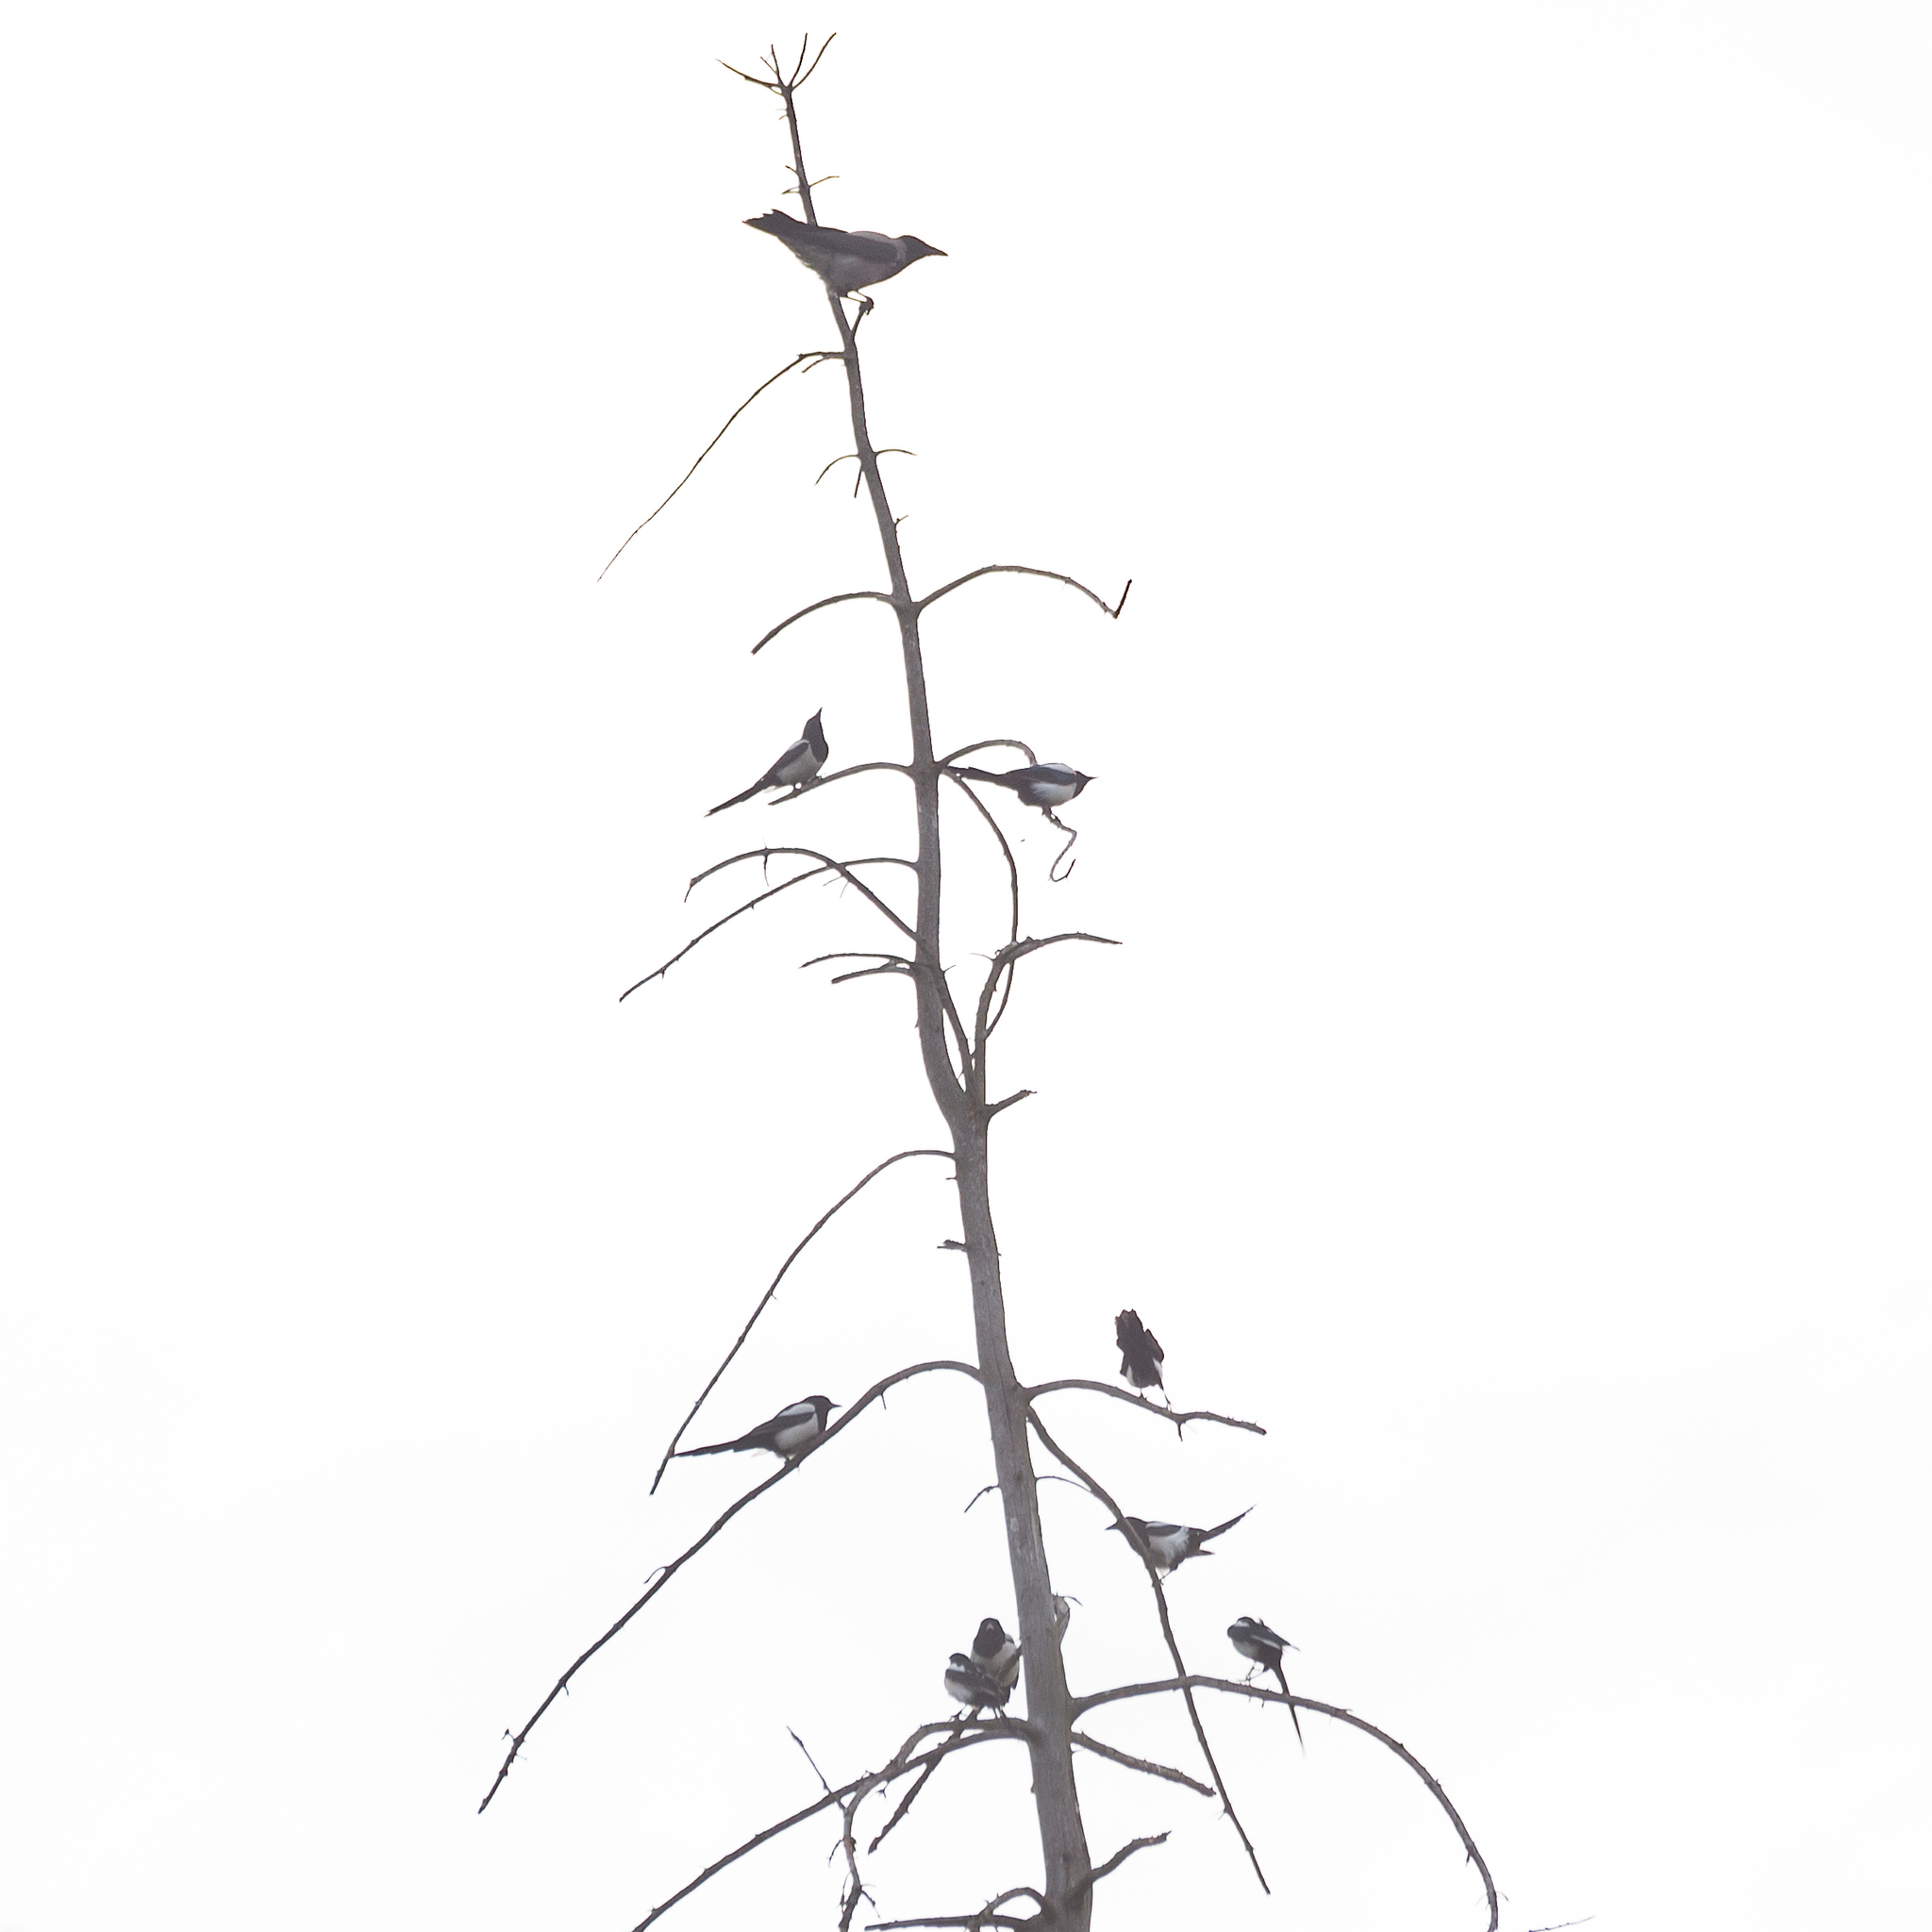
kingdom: Animalia
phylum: Chordata
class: Aves
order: Passeriformes
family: Corvidae
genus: Pica
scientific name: Pica pica
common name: Eurasian magpie
